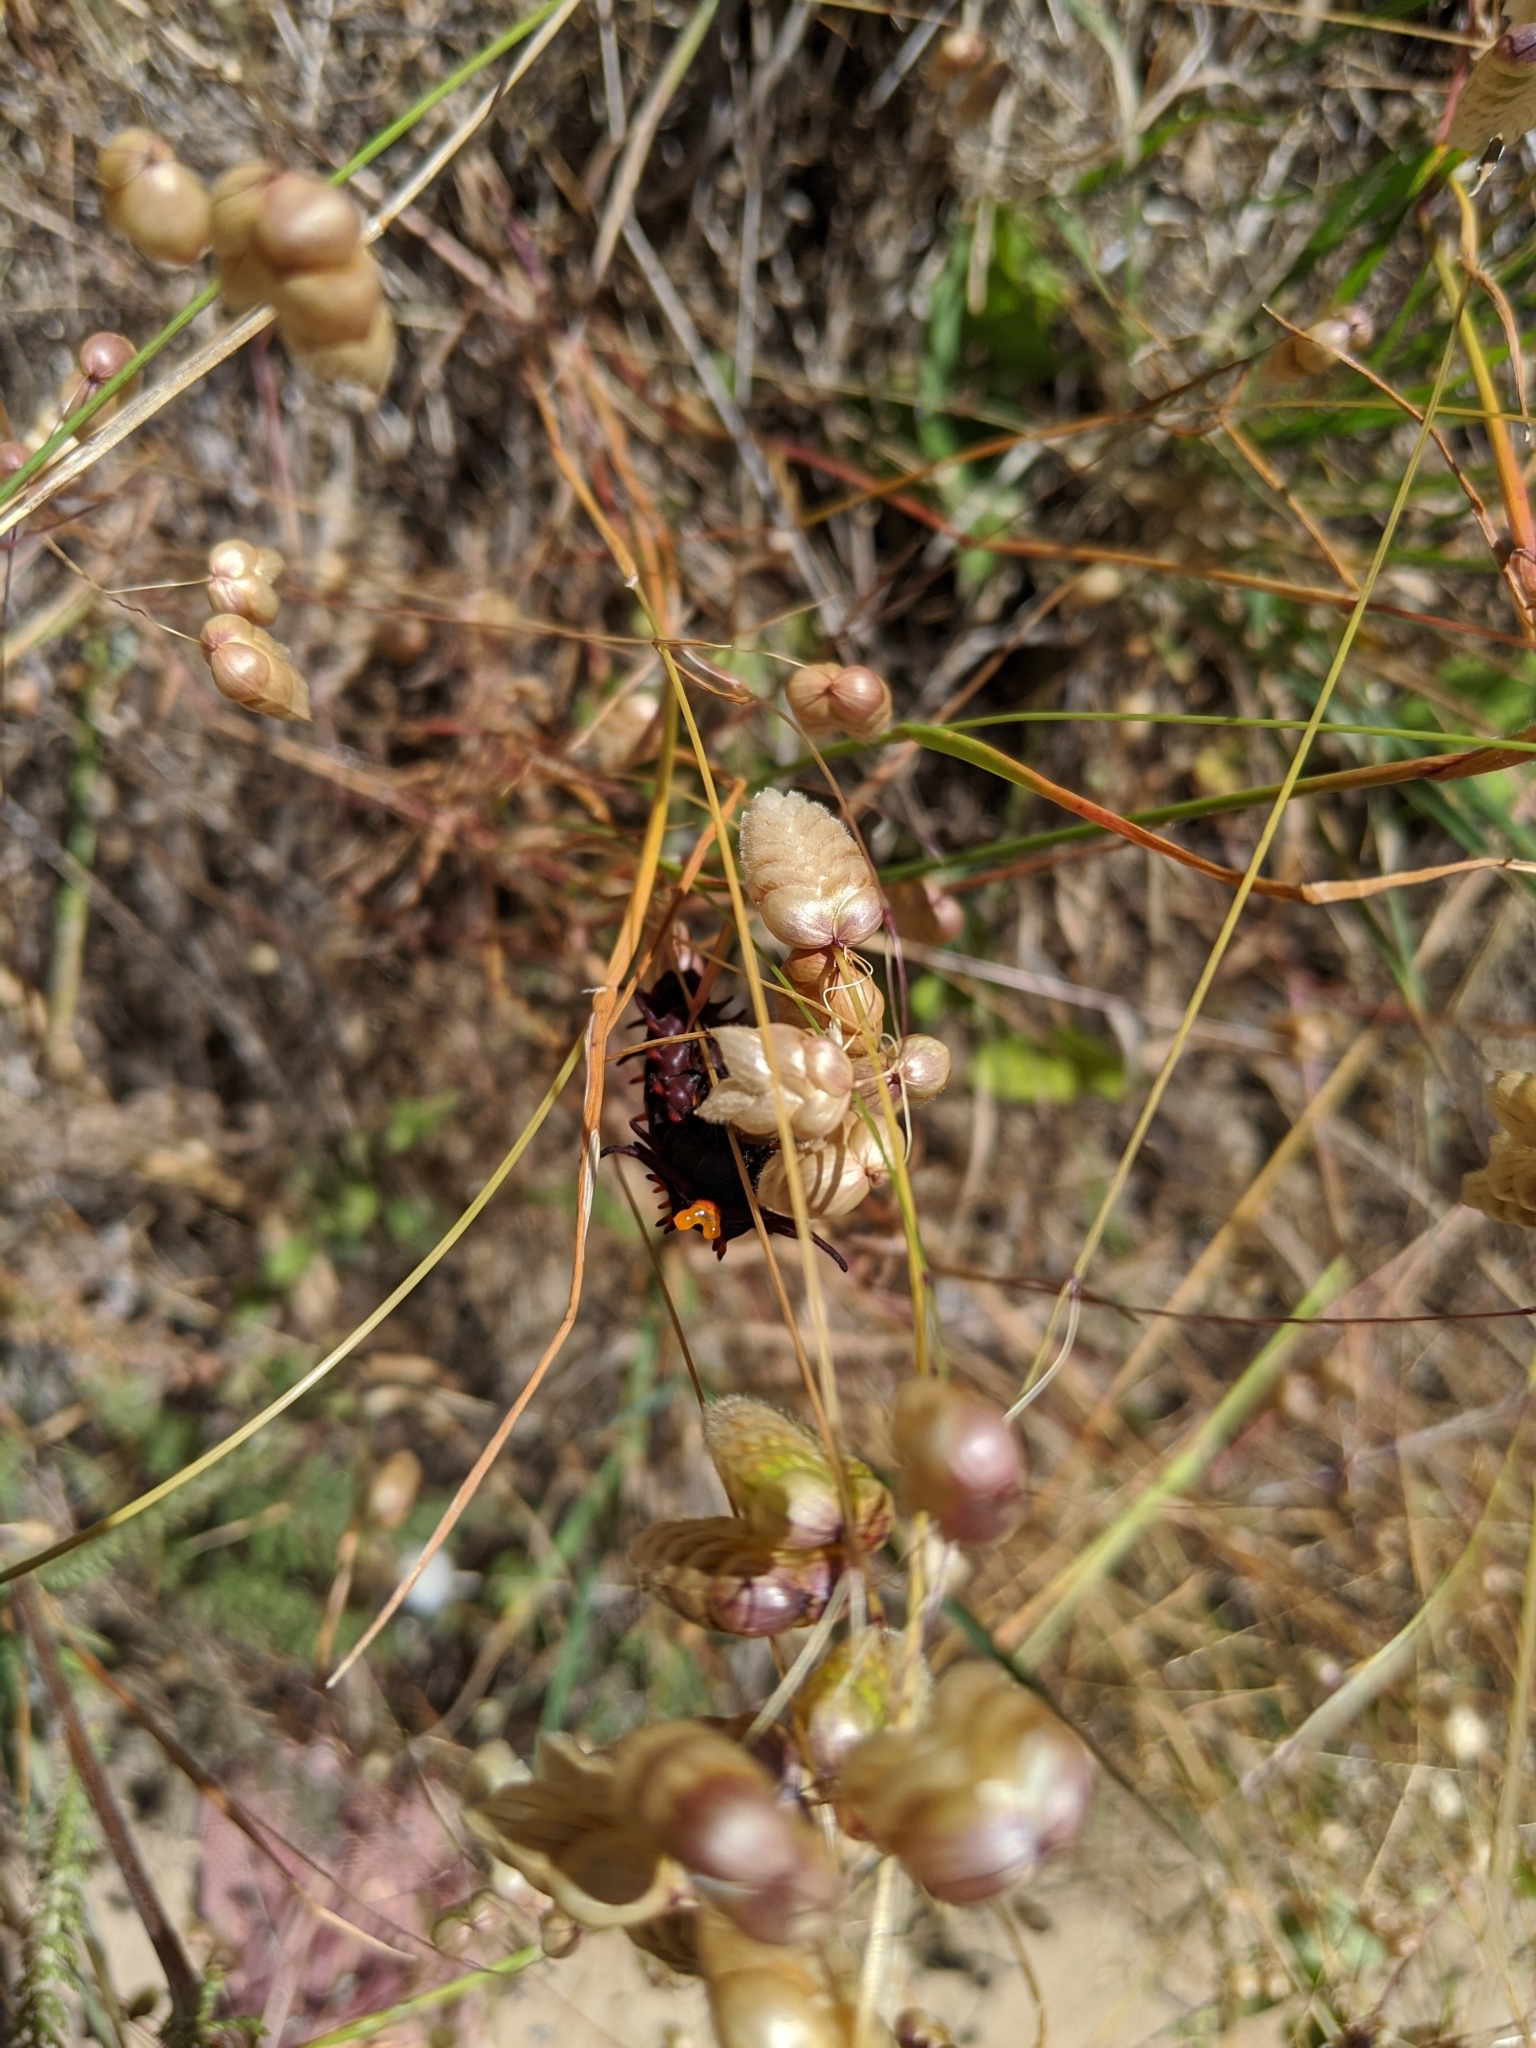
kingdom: Plantae
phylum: Tracheophyta
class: Liliopsida
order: Poales
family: Poaceae
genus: Briza
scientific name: Briza maxima
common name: Big quakinggrass
